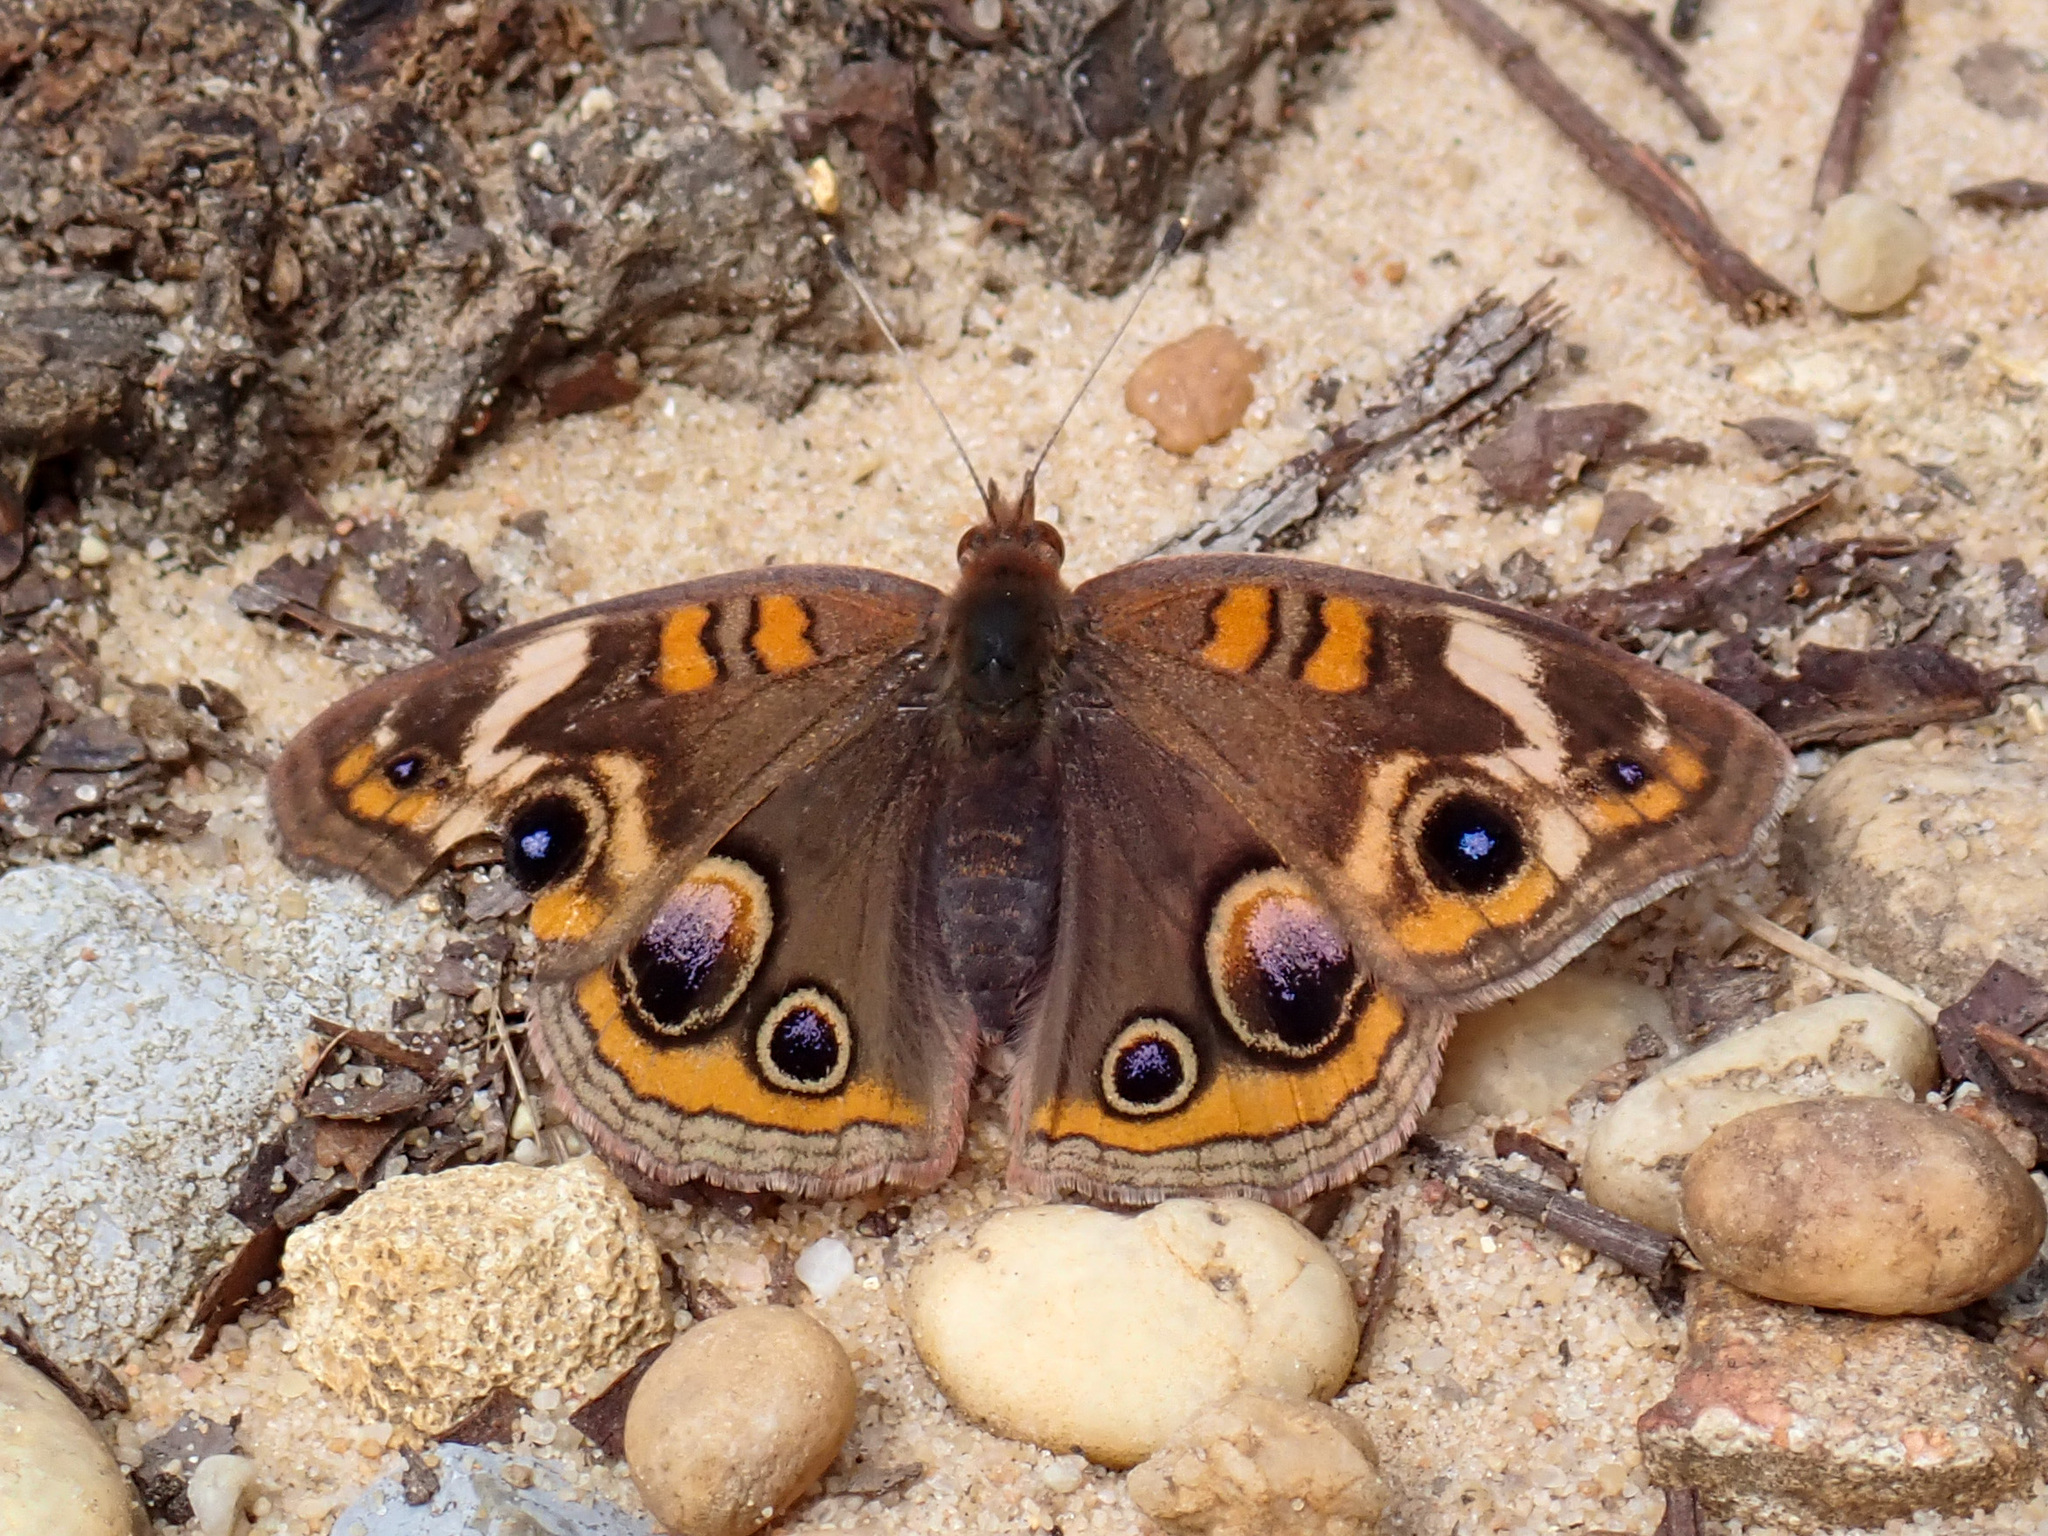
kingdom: Animalia
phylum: Arthropoda
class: Insecta
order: Lepidoptera
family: Nymphalidae
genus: Junonia
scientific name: Junonia coenia
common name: Common buckeye
